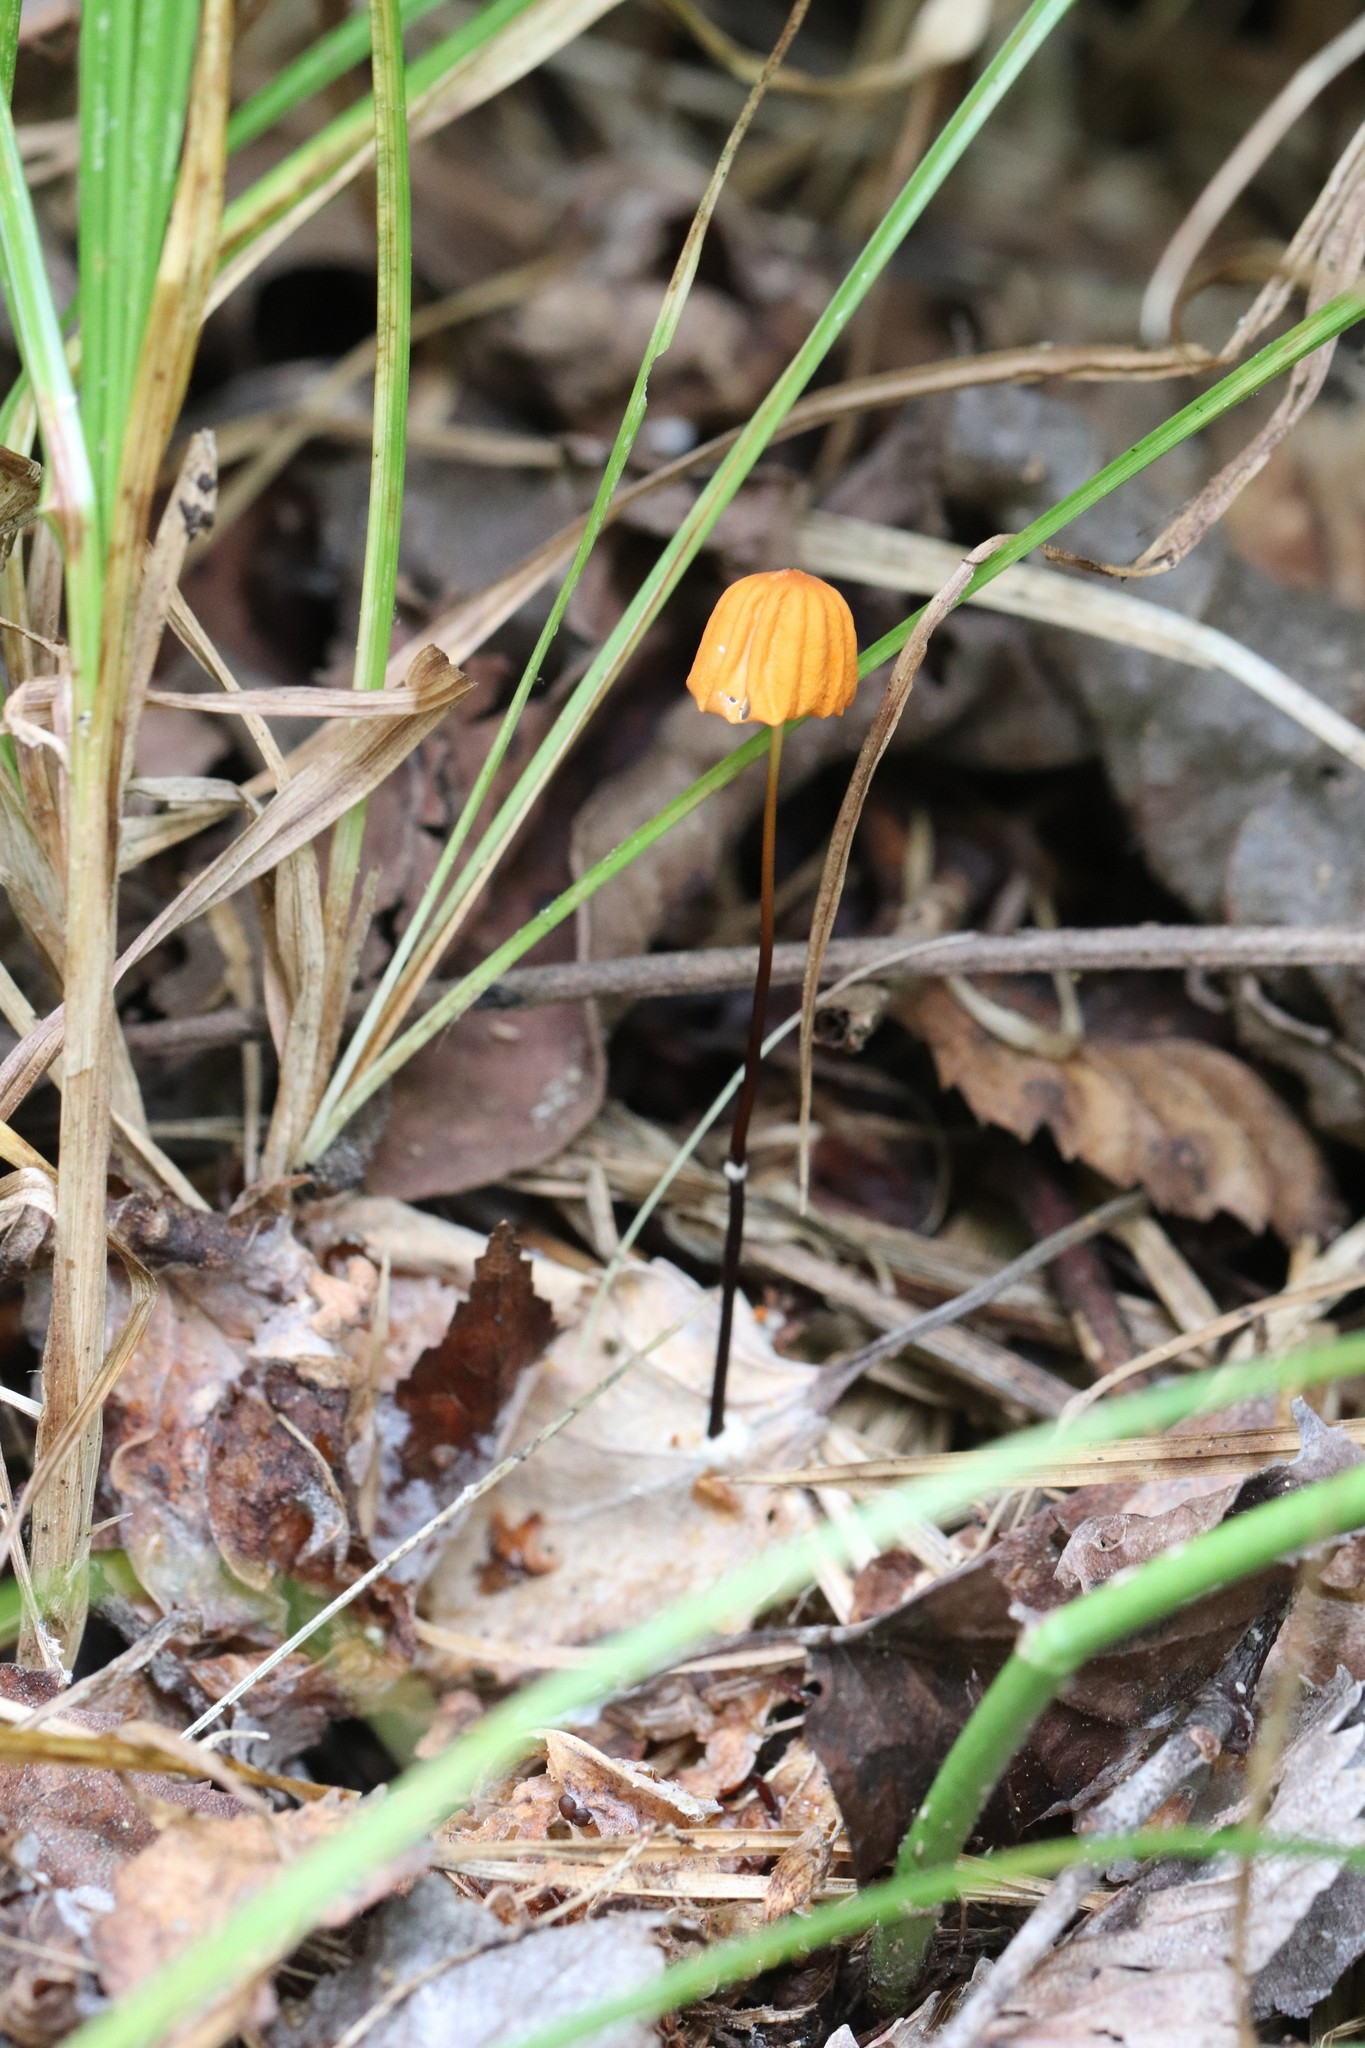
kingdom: Fungi
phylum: Basidiomycota
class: Agaricomycetes
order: Agaricales
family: Marasmiaceae
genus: Marasmius
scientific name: Marasmius siccus
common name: Orange pinwheel
